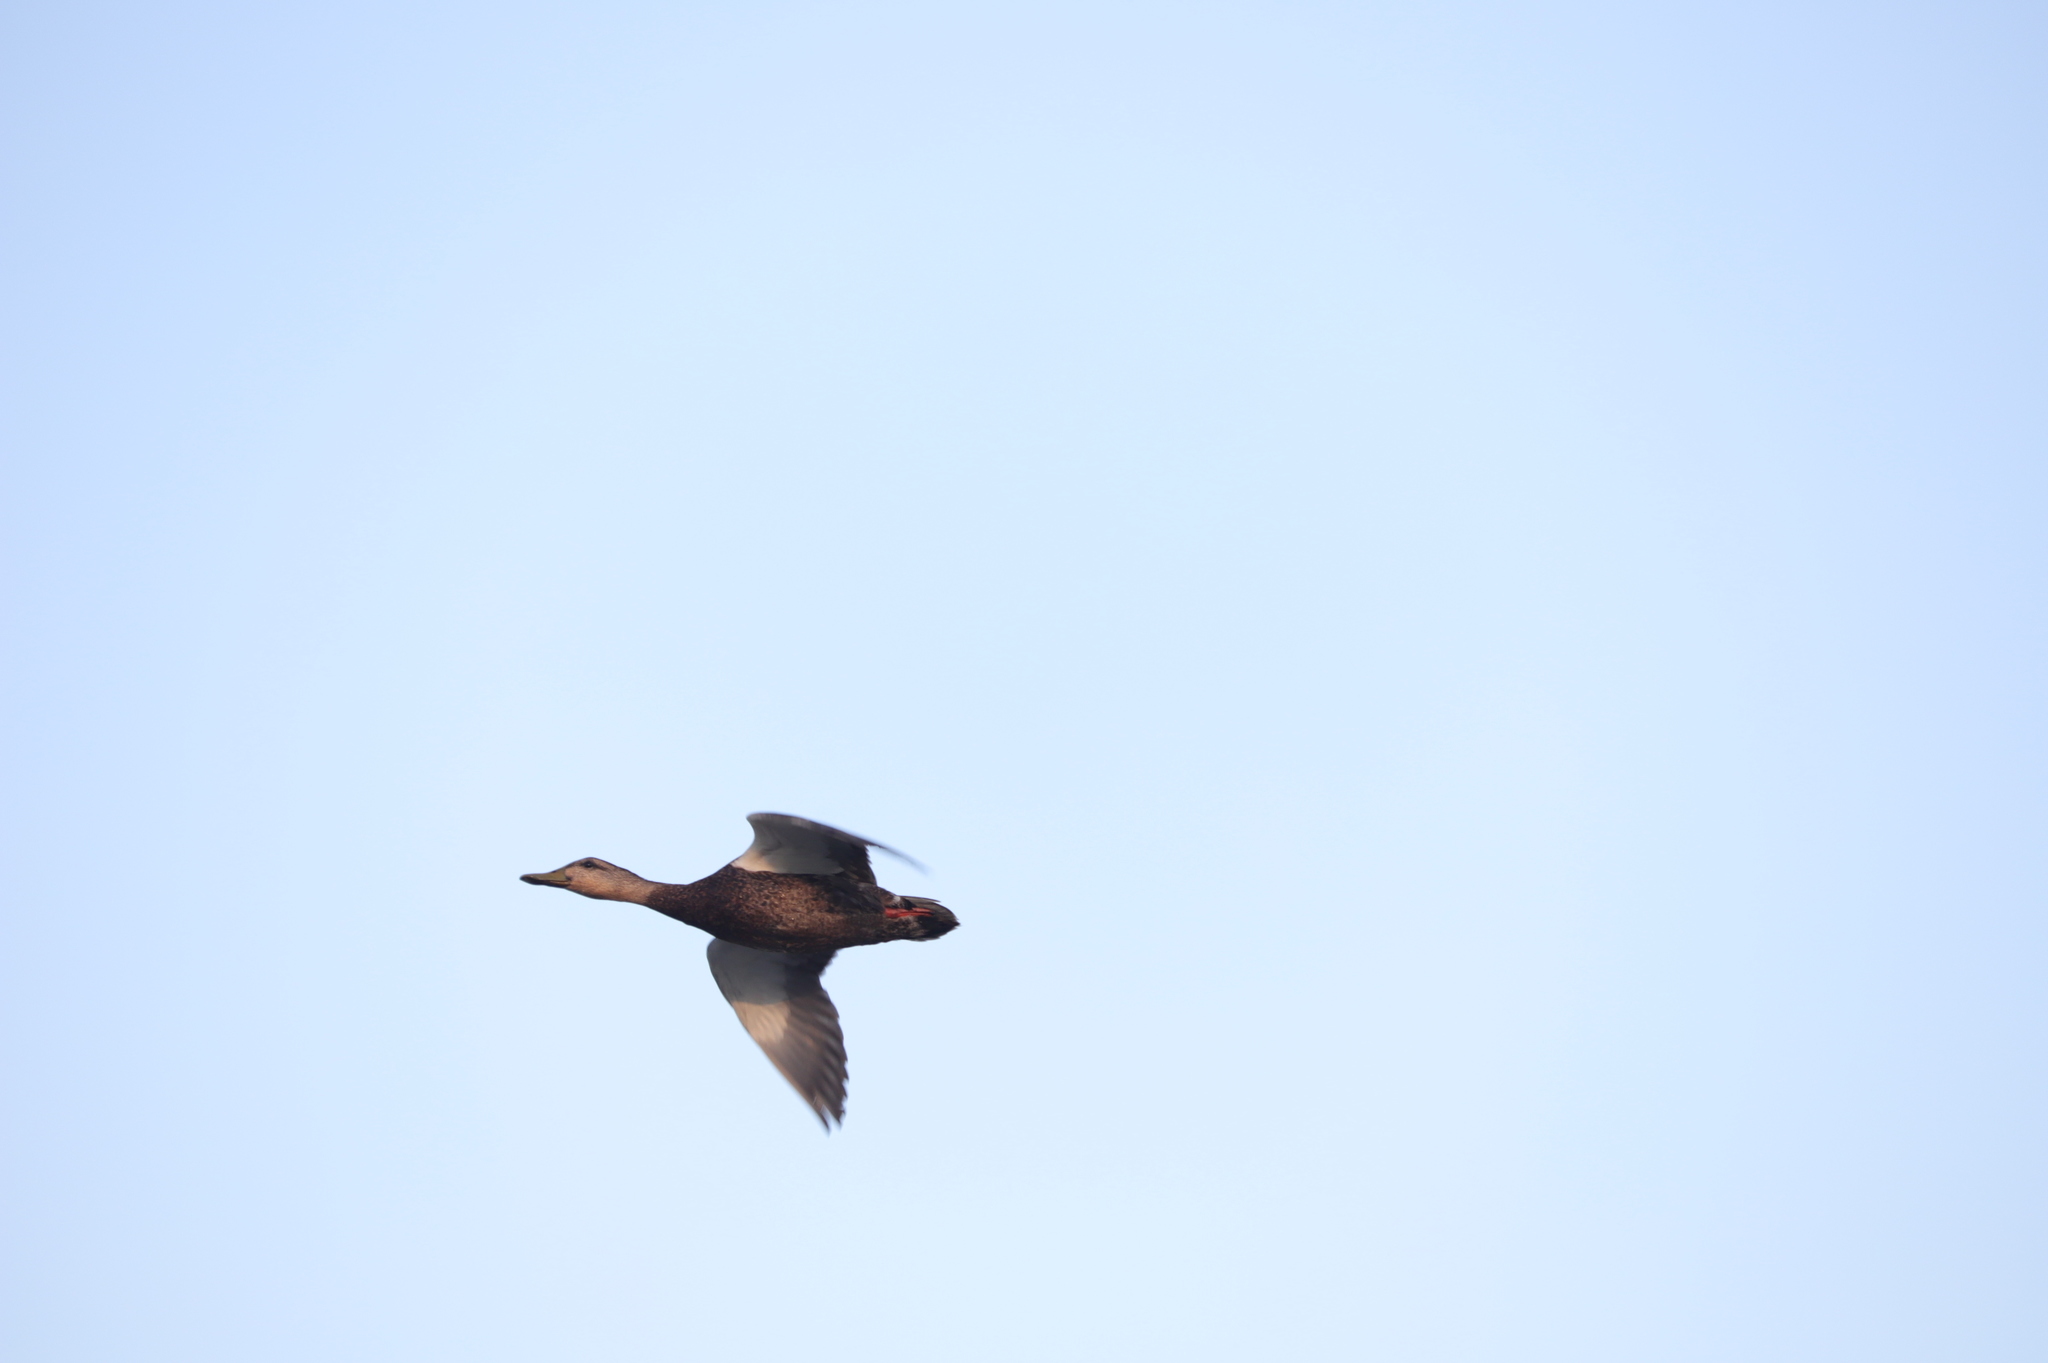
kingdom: Animalia
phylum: Chordata
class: Aves
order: Anseriformes
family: Anatidae
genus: Anas
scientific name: Anas rubripes
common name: American black duck
